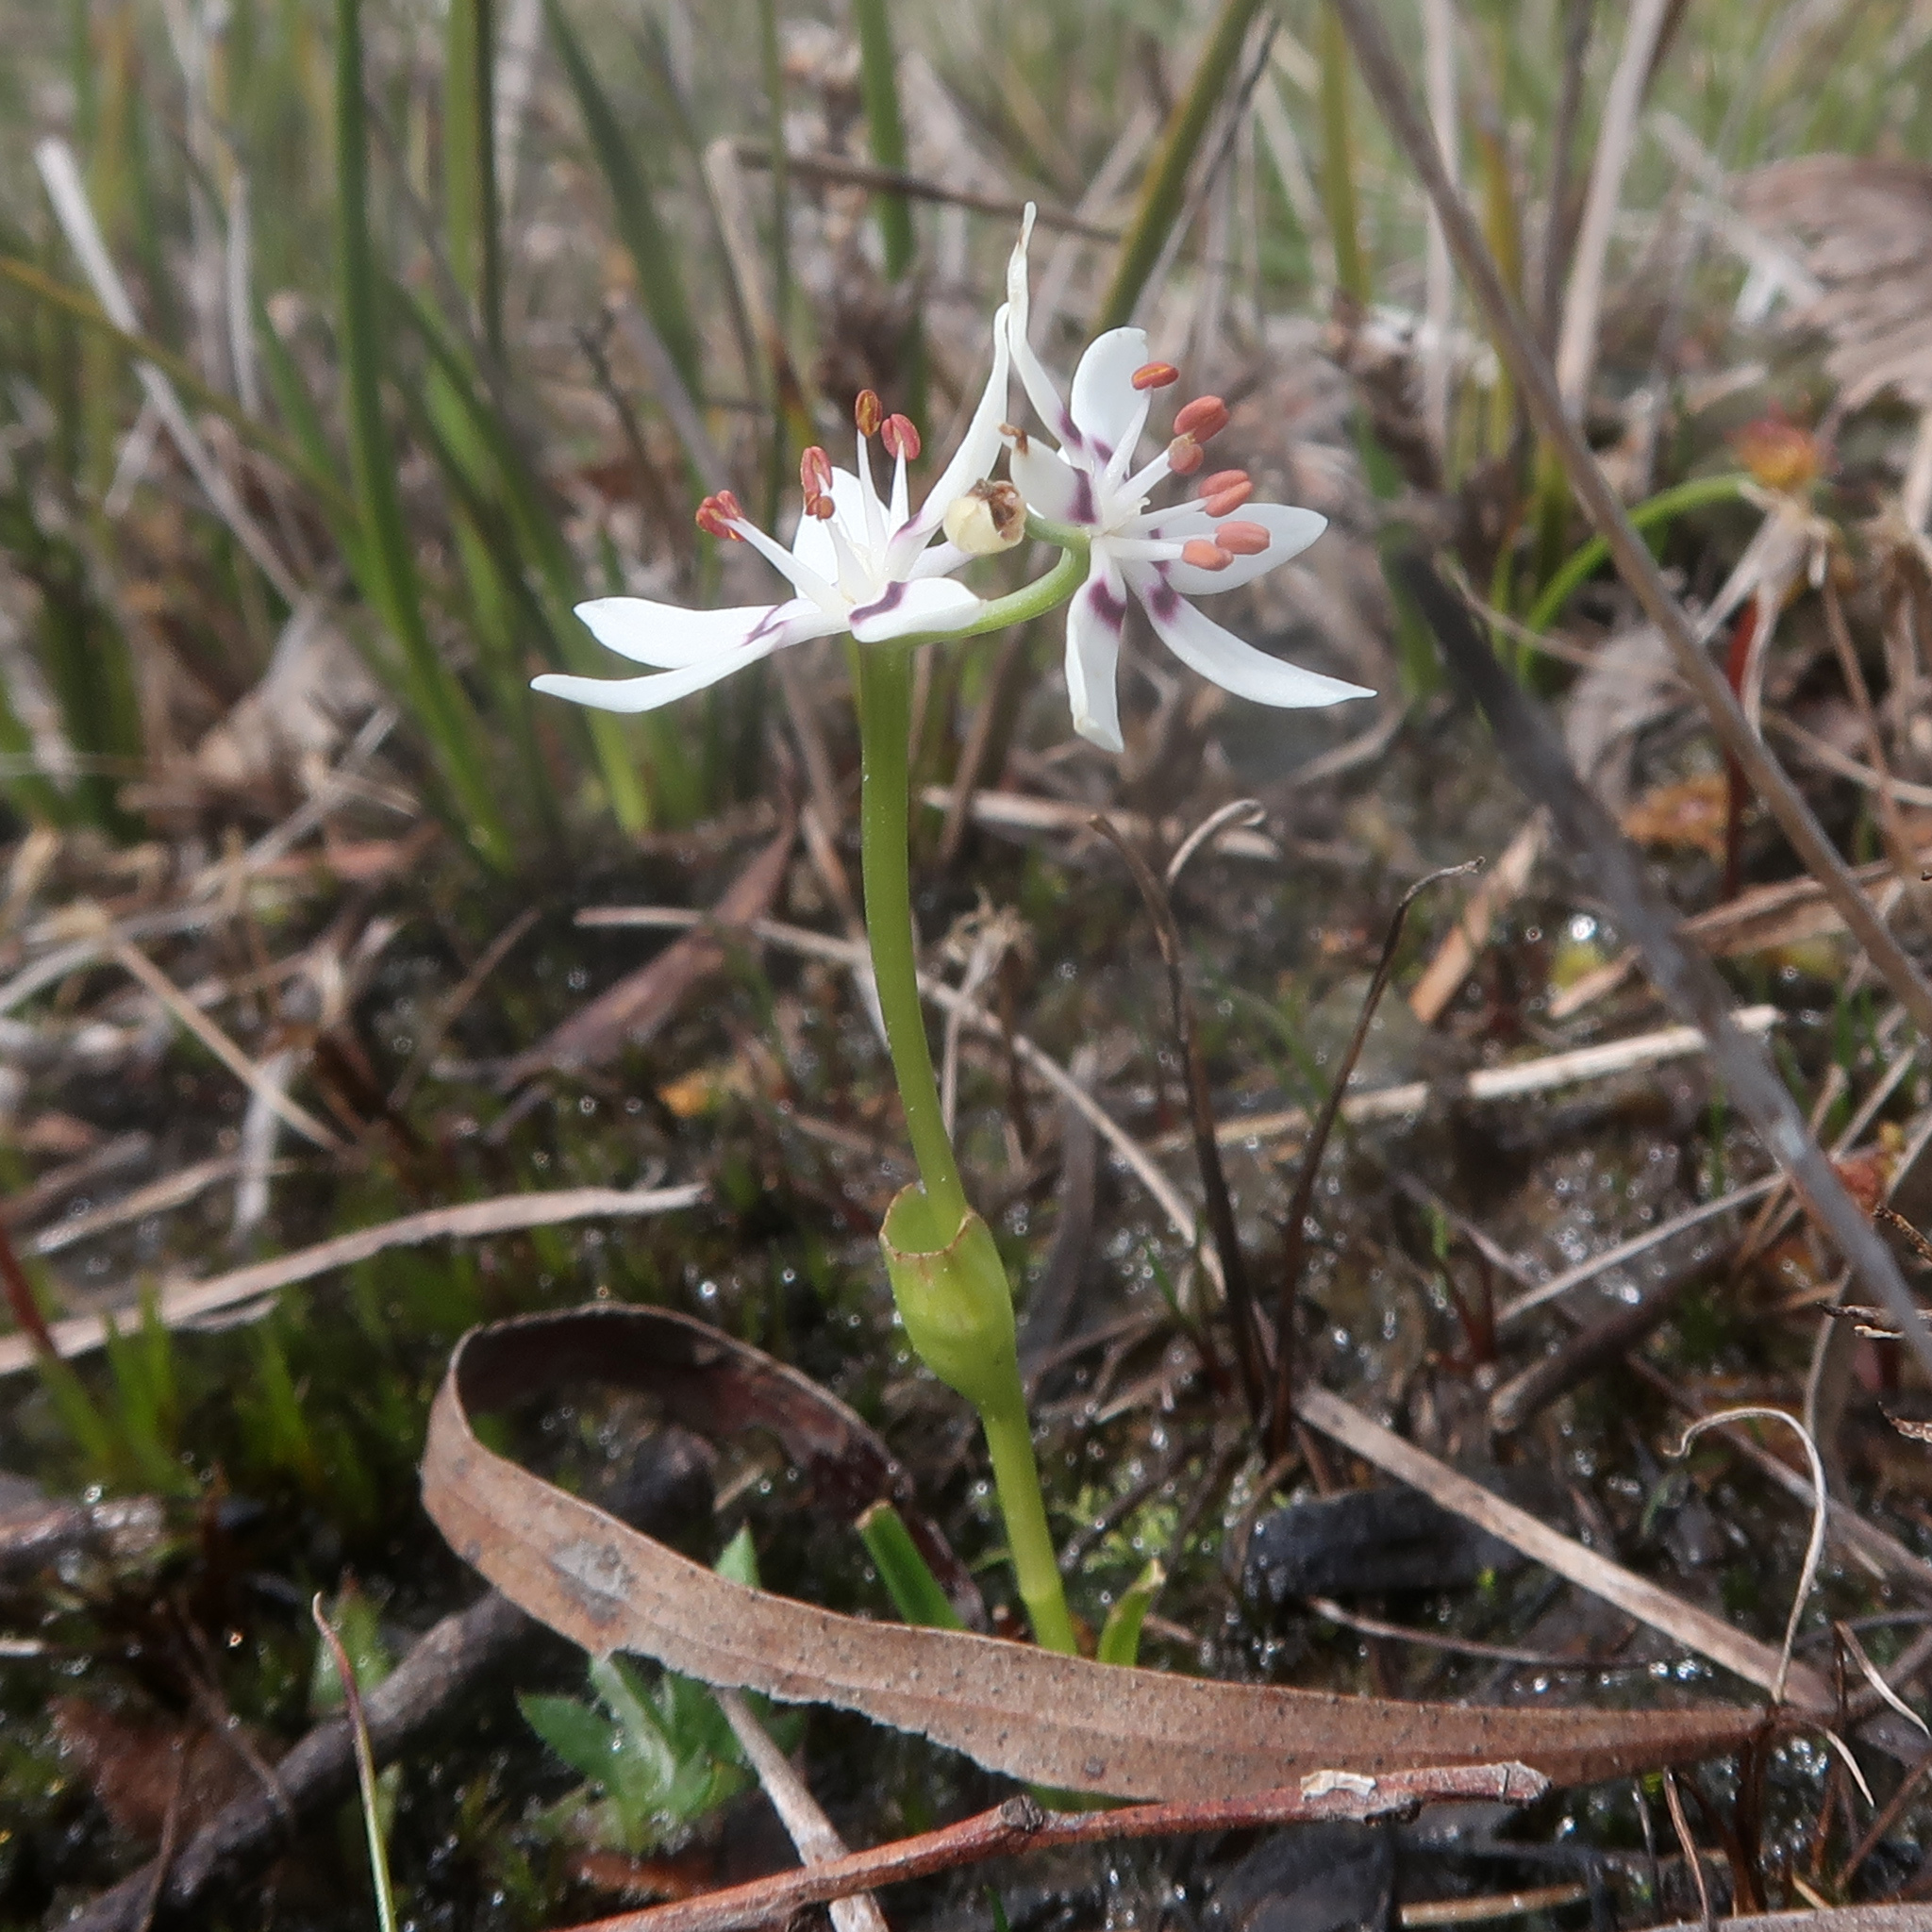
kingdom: Plantae
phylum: Tracheophyta
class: Liliopsida
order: Liliales
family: Colchicaceae
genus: Wurmbea
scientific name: Wurmbea dioica
